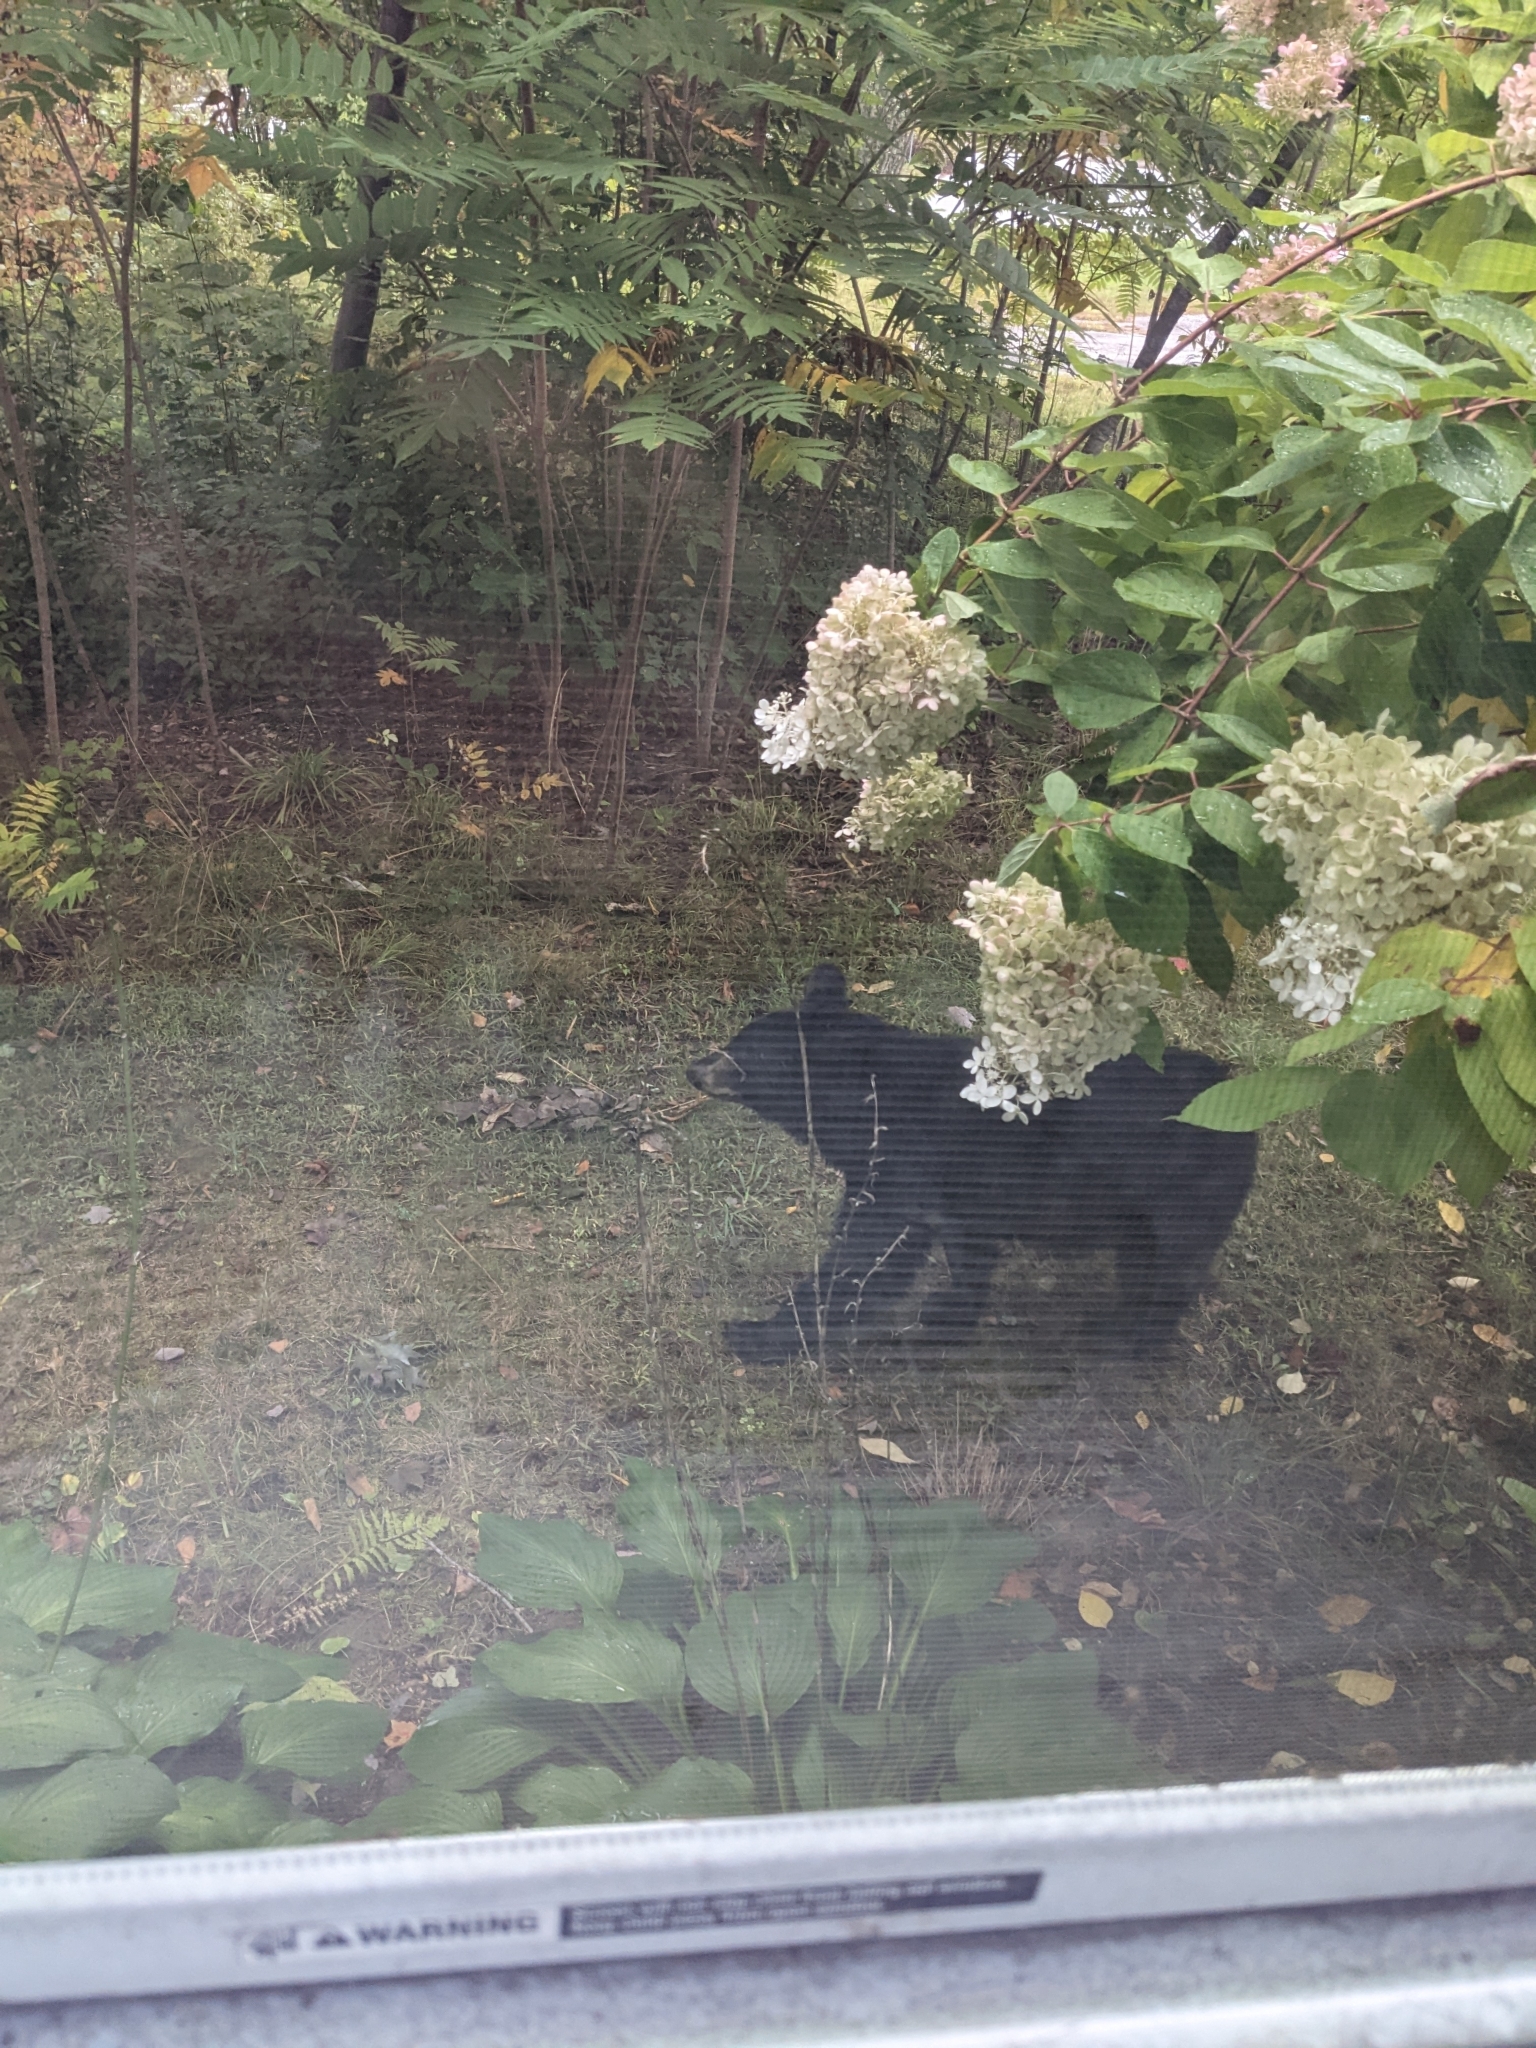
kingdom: Animalia
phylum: Chordata
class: Mammalia
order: Carnivora
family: Ursidae
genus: Ursus
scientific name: Ursus americanus
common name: American black bear
